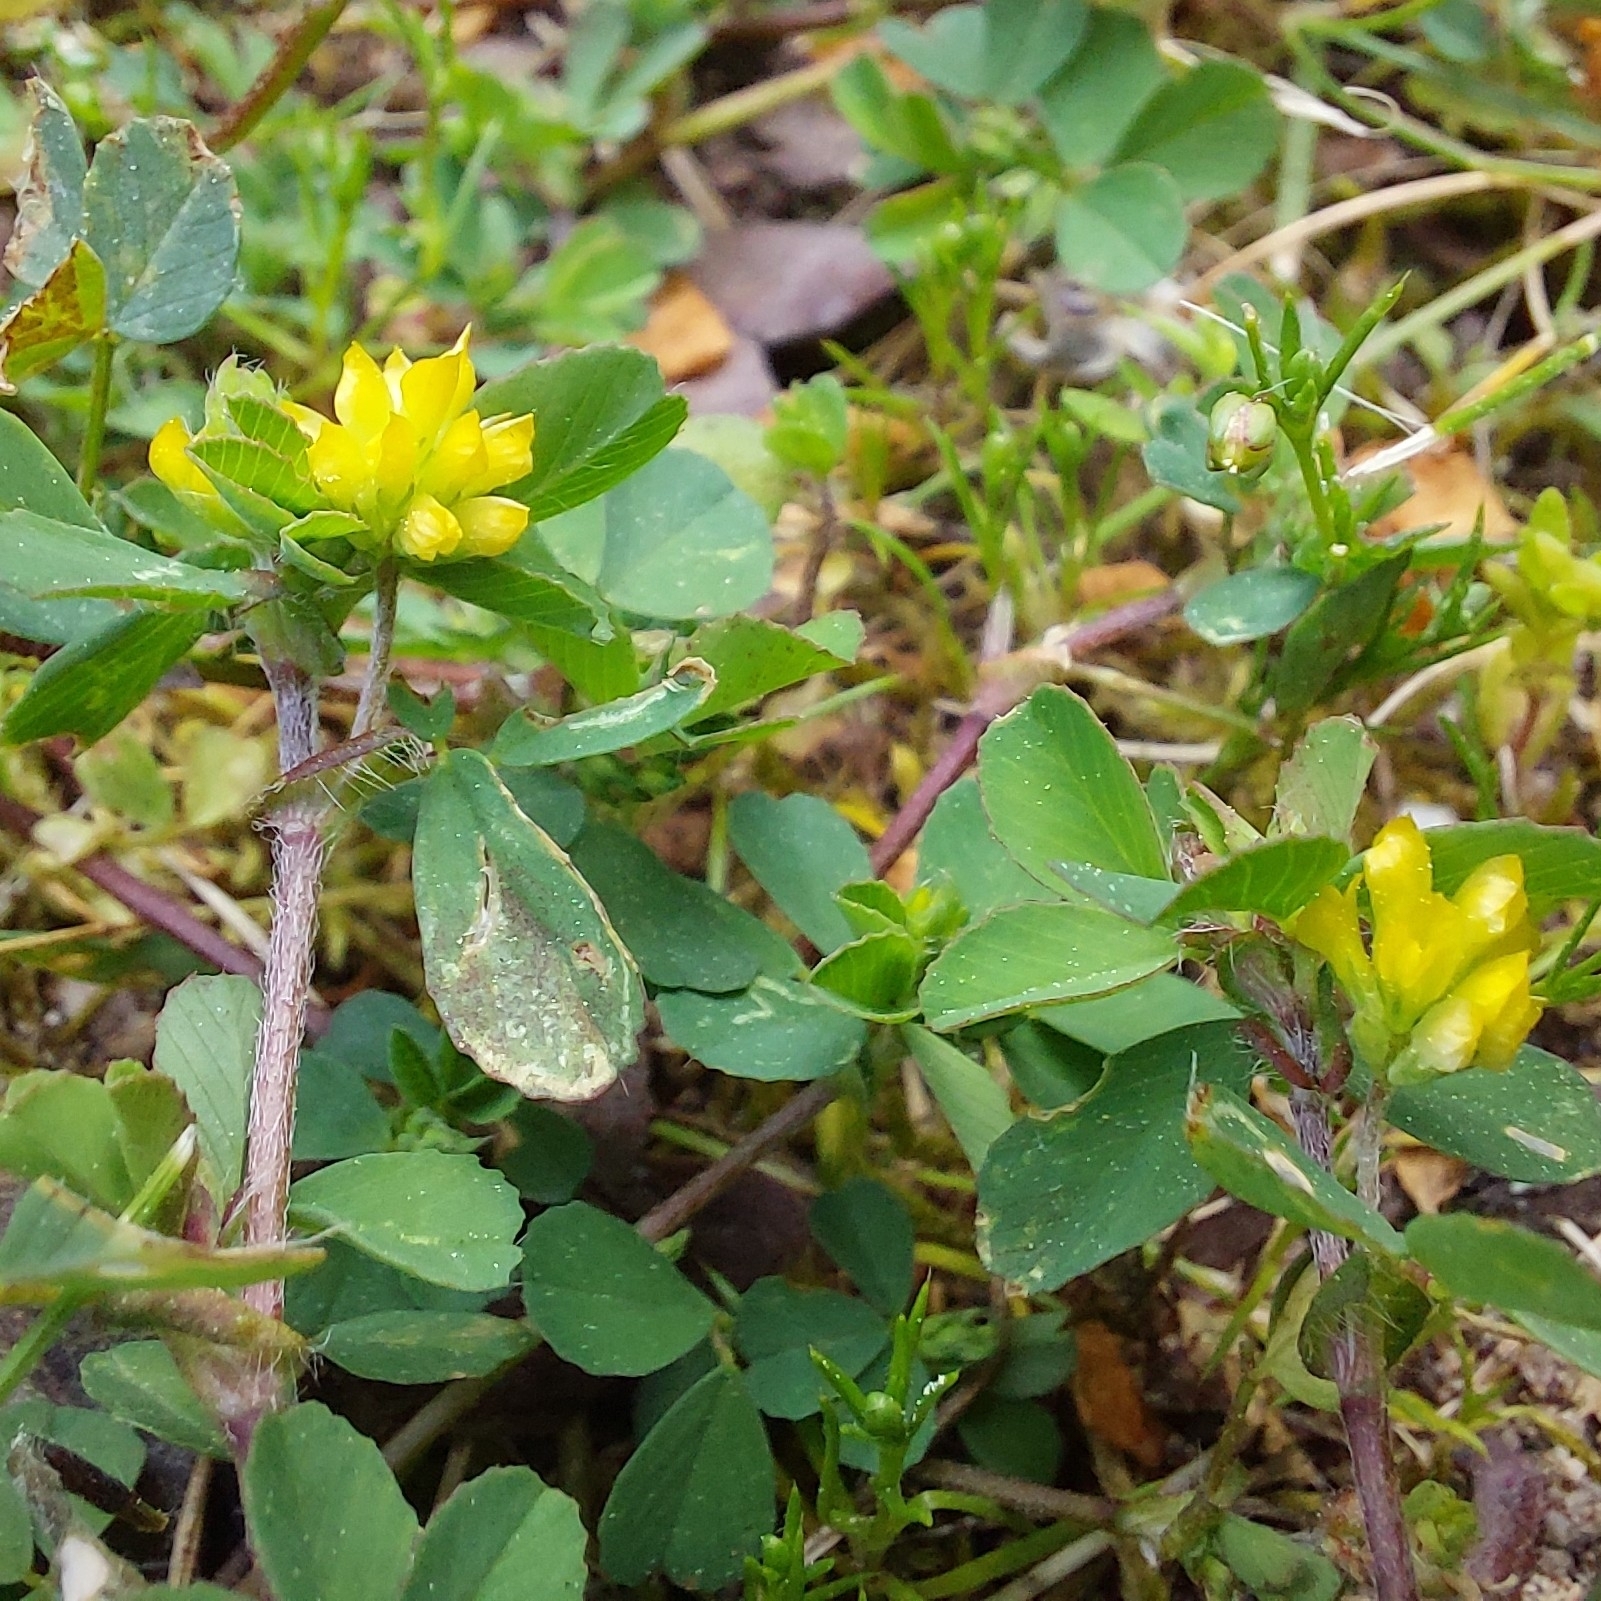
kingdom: Plantae
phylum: Tracheophyta
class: Magnoliopsida
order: Fabales
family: Fabaceae
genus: Trifolium
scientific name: Trifolium dubium
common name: Suckling clover
